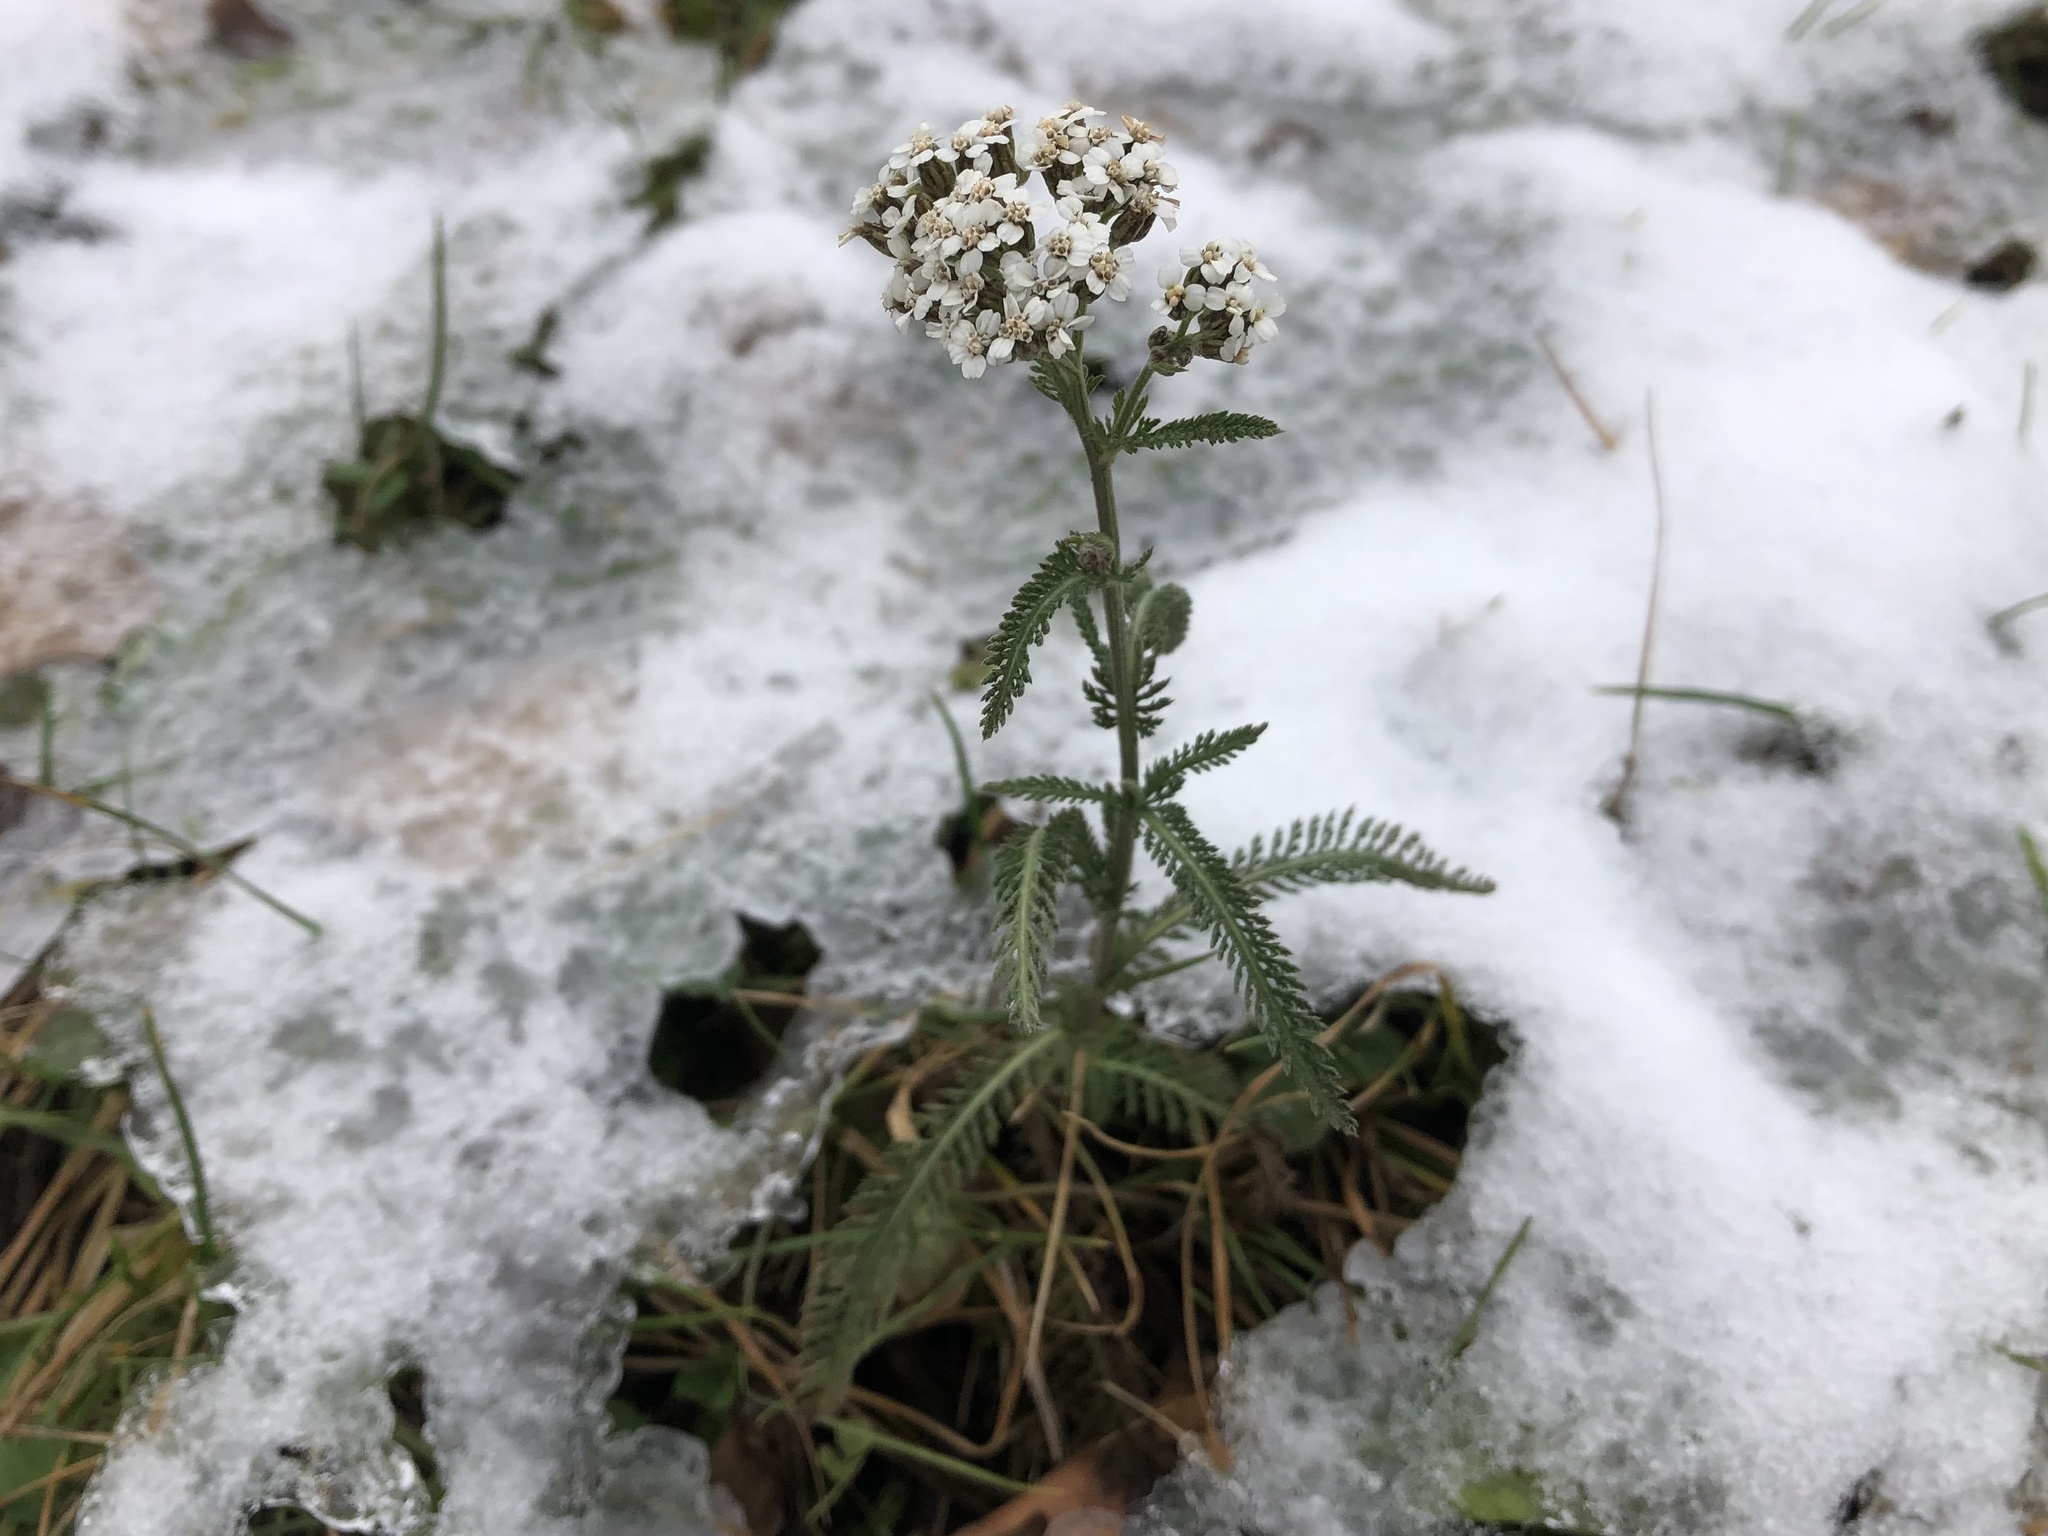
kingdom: Plantae
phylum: Tracheophyta
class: Magnoliopsida
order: Asterales
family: Asteraceae
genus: Achillea
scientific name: Achillea millefolium
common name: Yarrow
